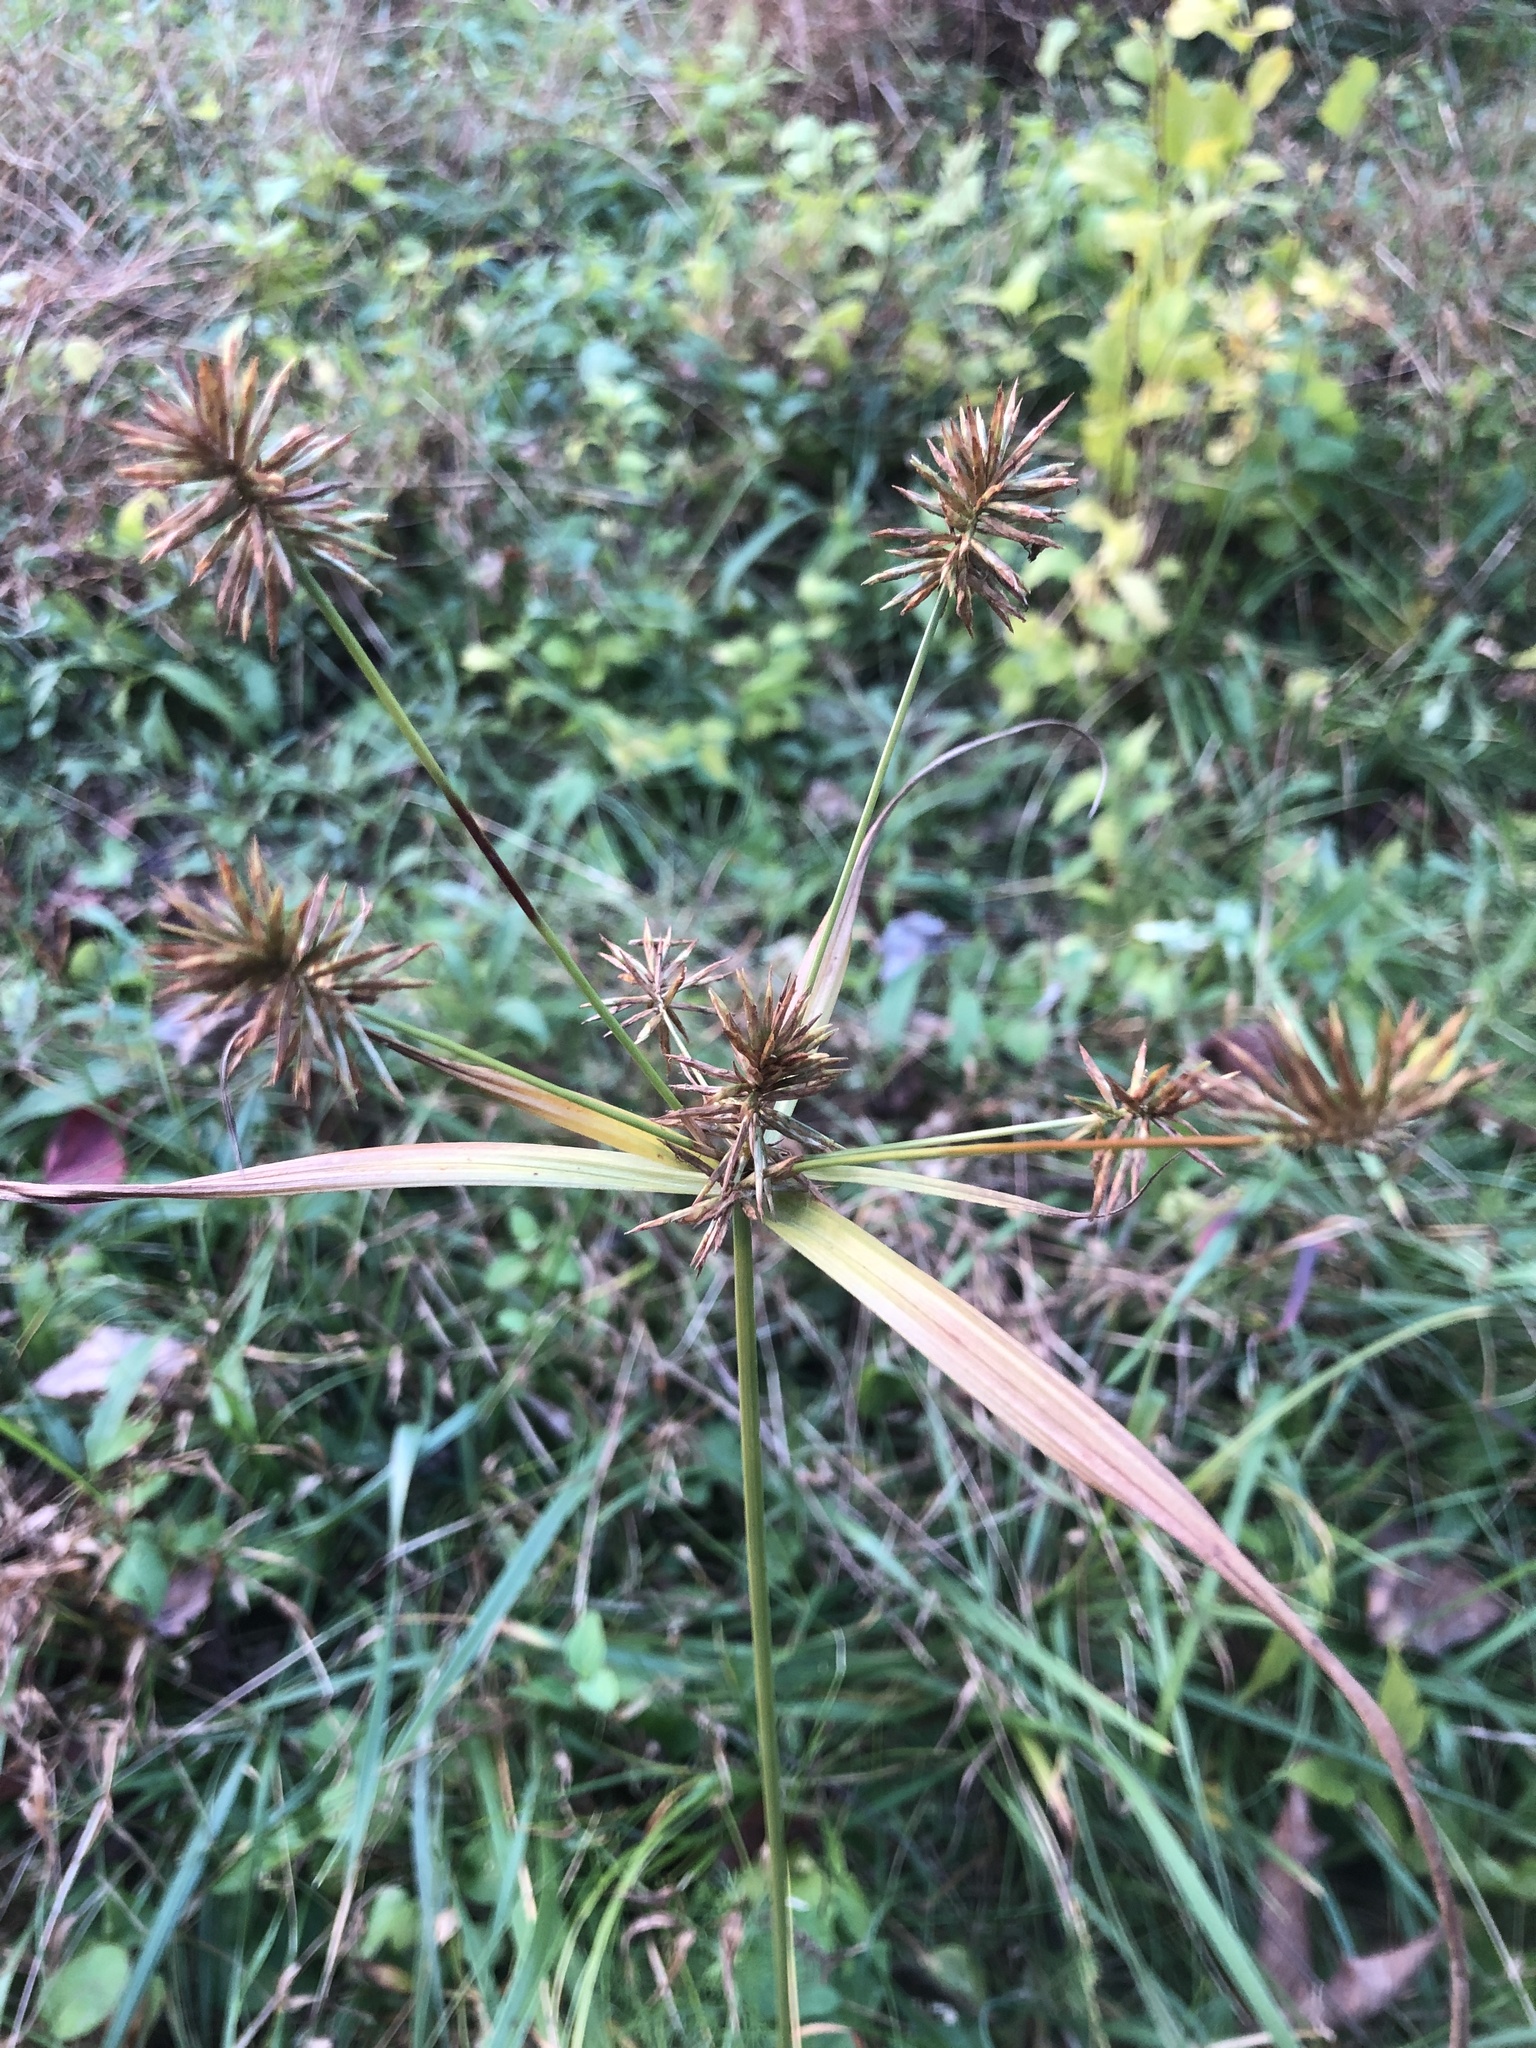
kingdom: Plantae
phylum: Tracheophyta
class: Liliopsida
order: Poales
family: Cyperaceae
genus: Cyperus
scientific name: Cyperus lancastriensis
